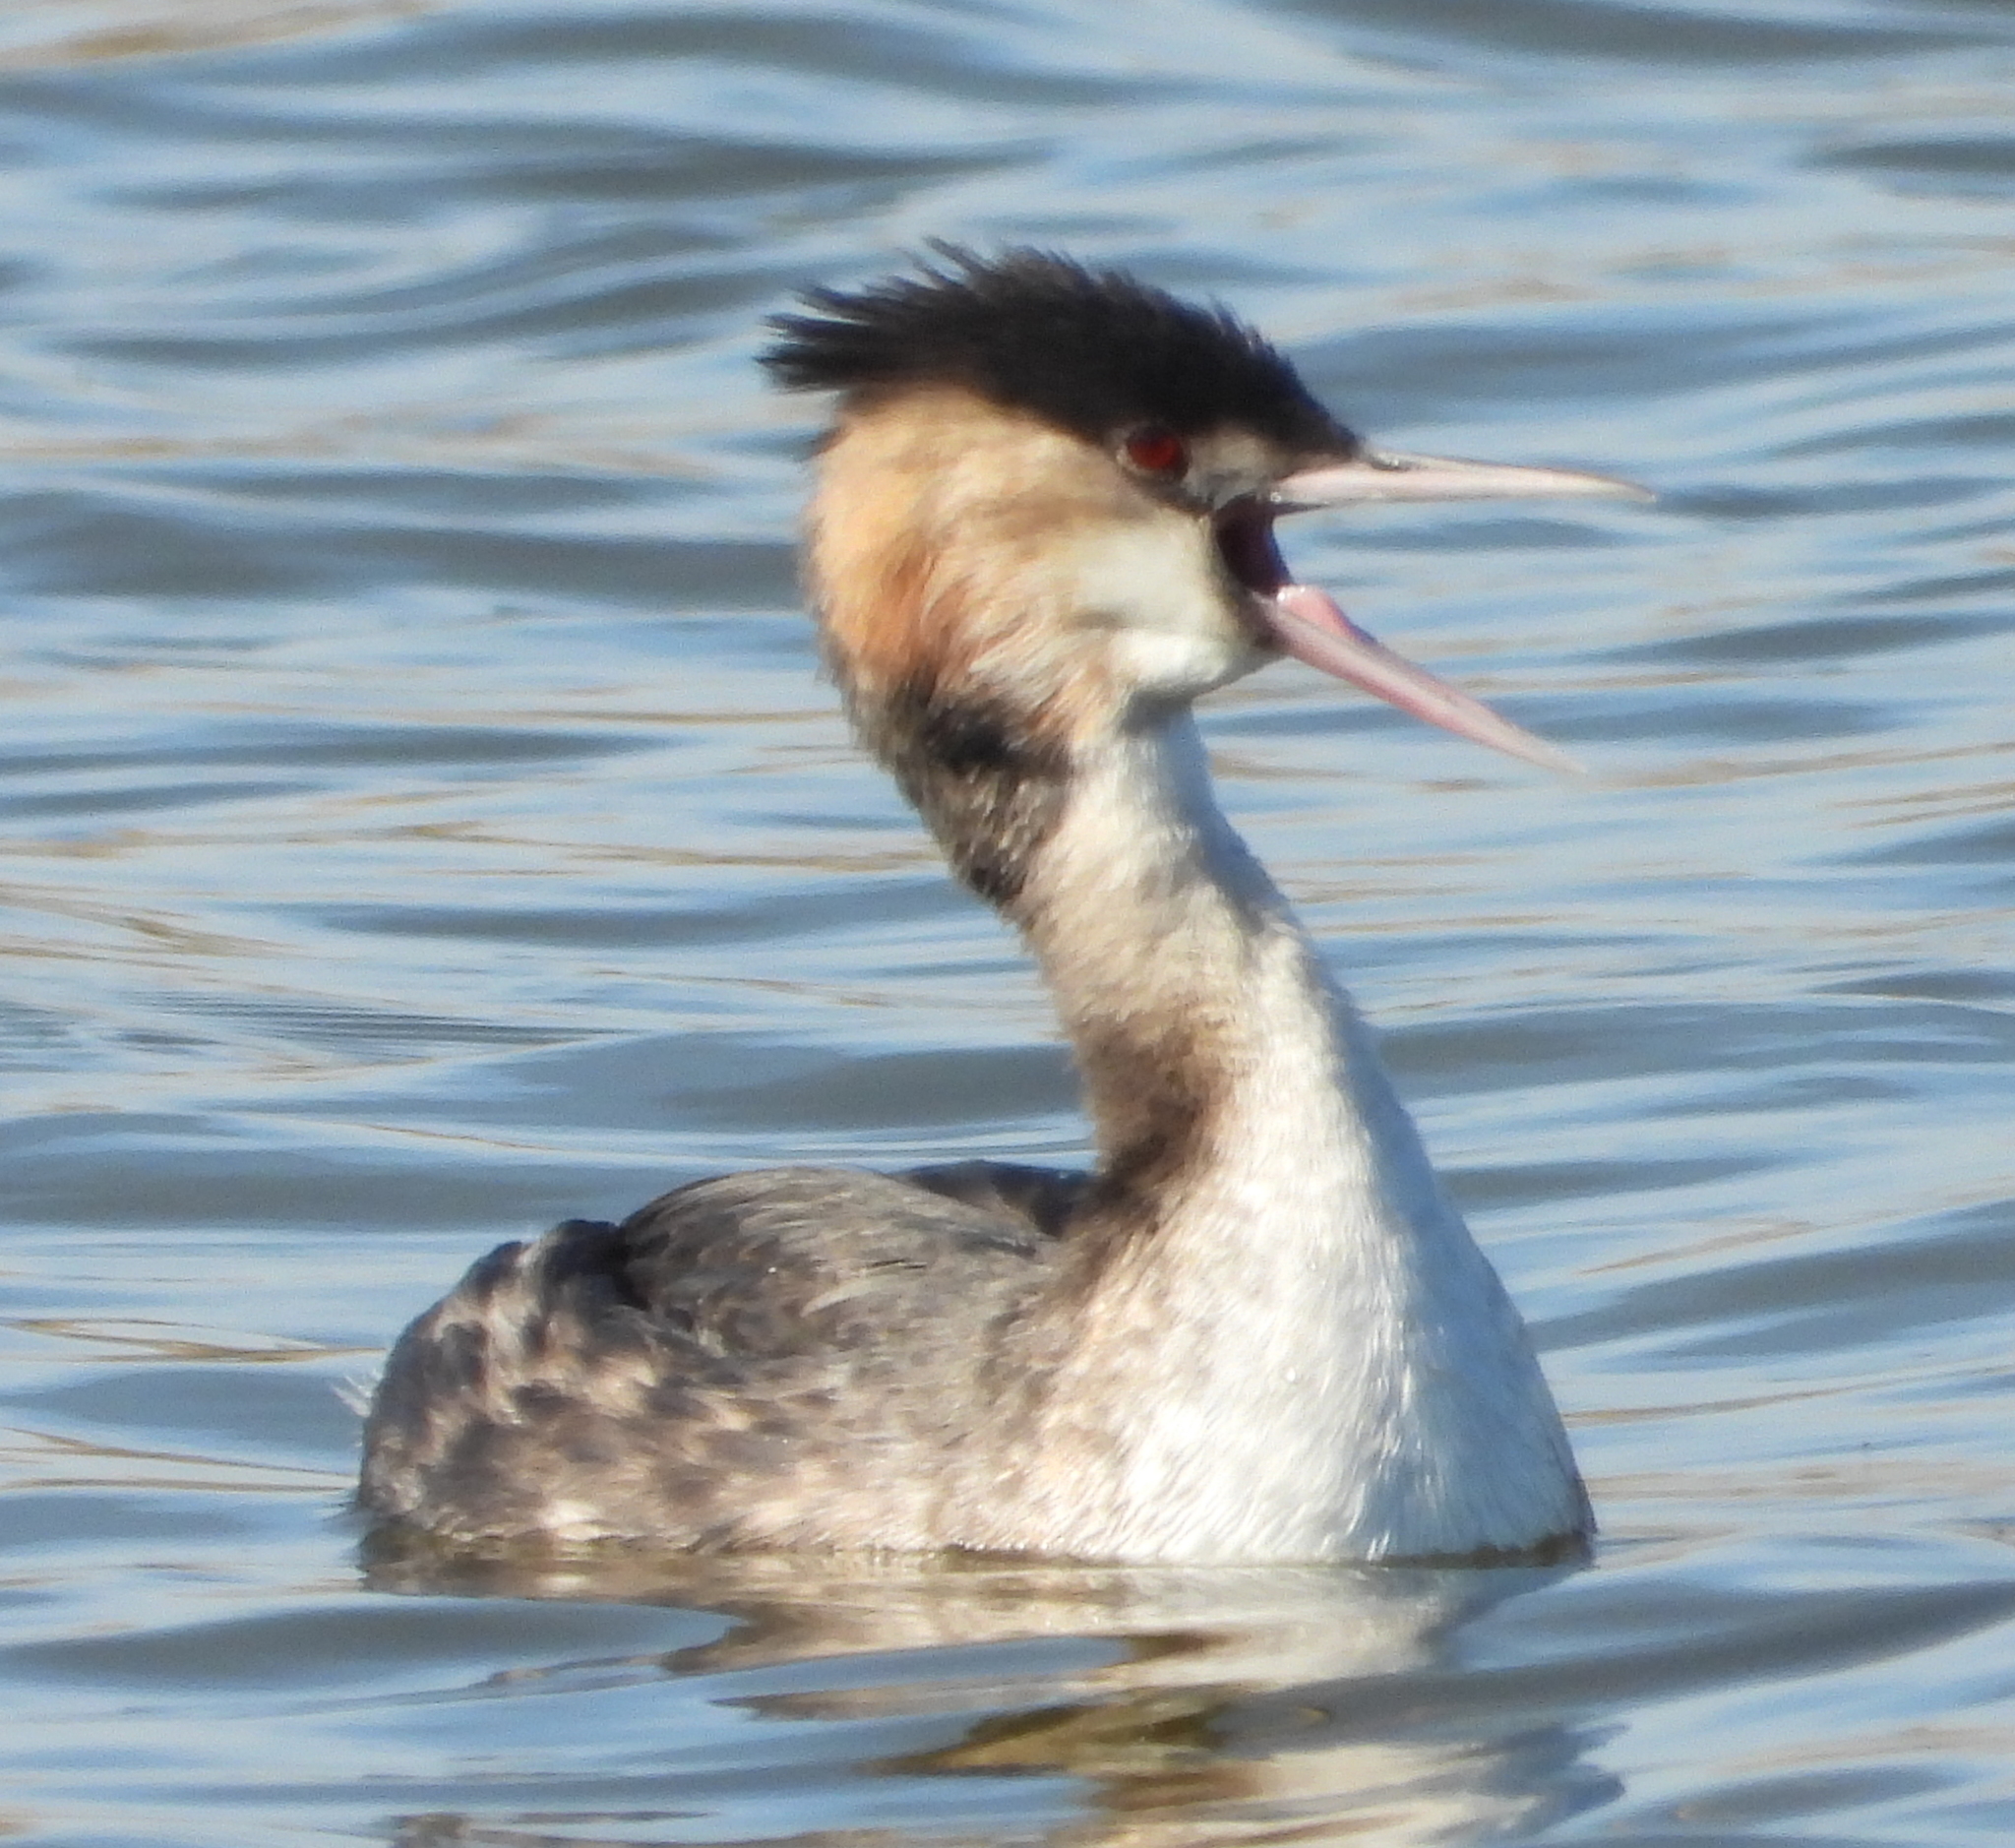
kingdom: Animalia
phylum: Chordata
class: Aves
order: Podicipediformes
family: Podicipedidae
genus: Podiceps
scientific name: Podiceps cristatus
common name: Great crested grebe
